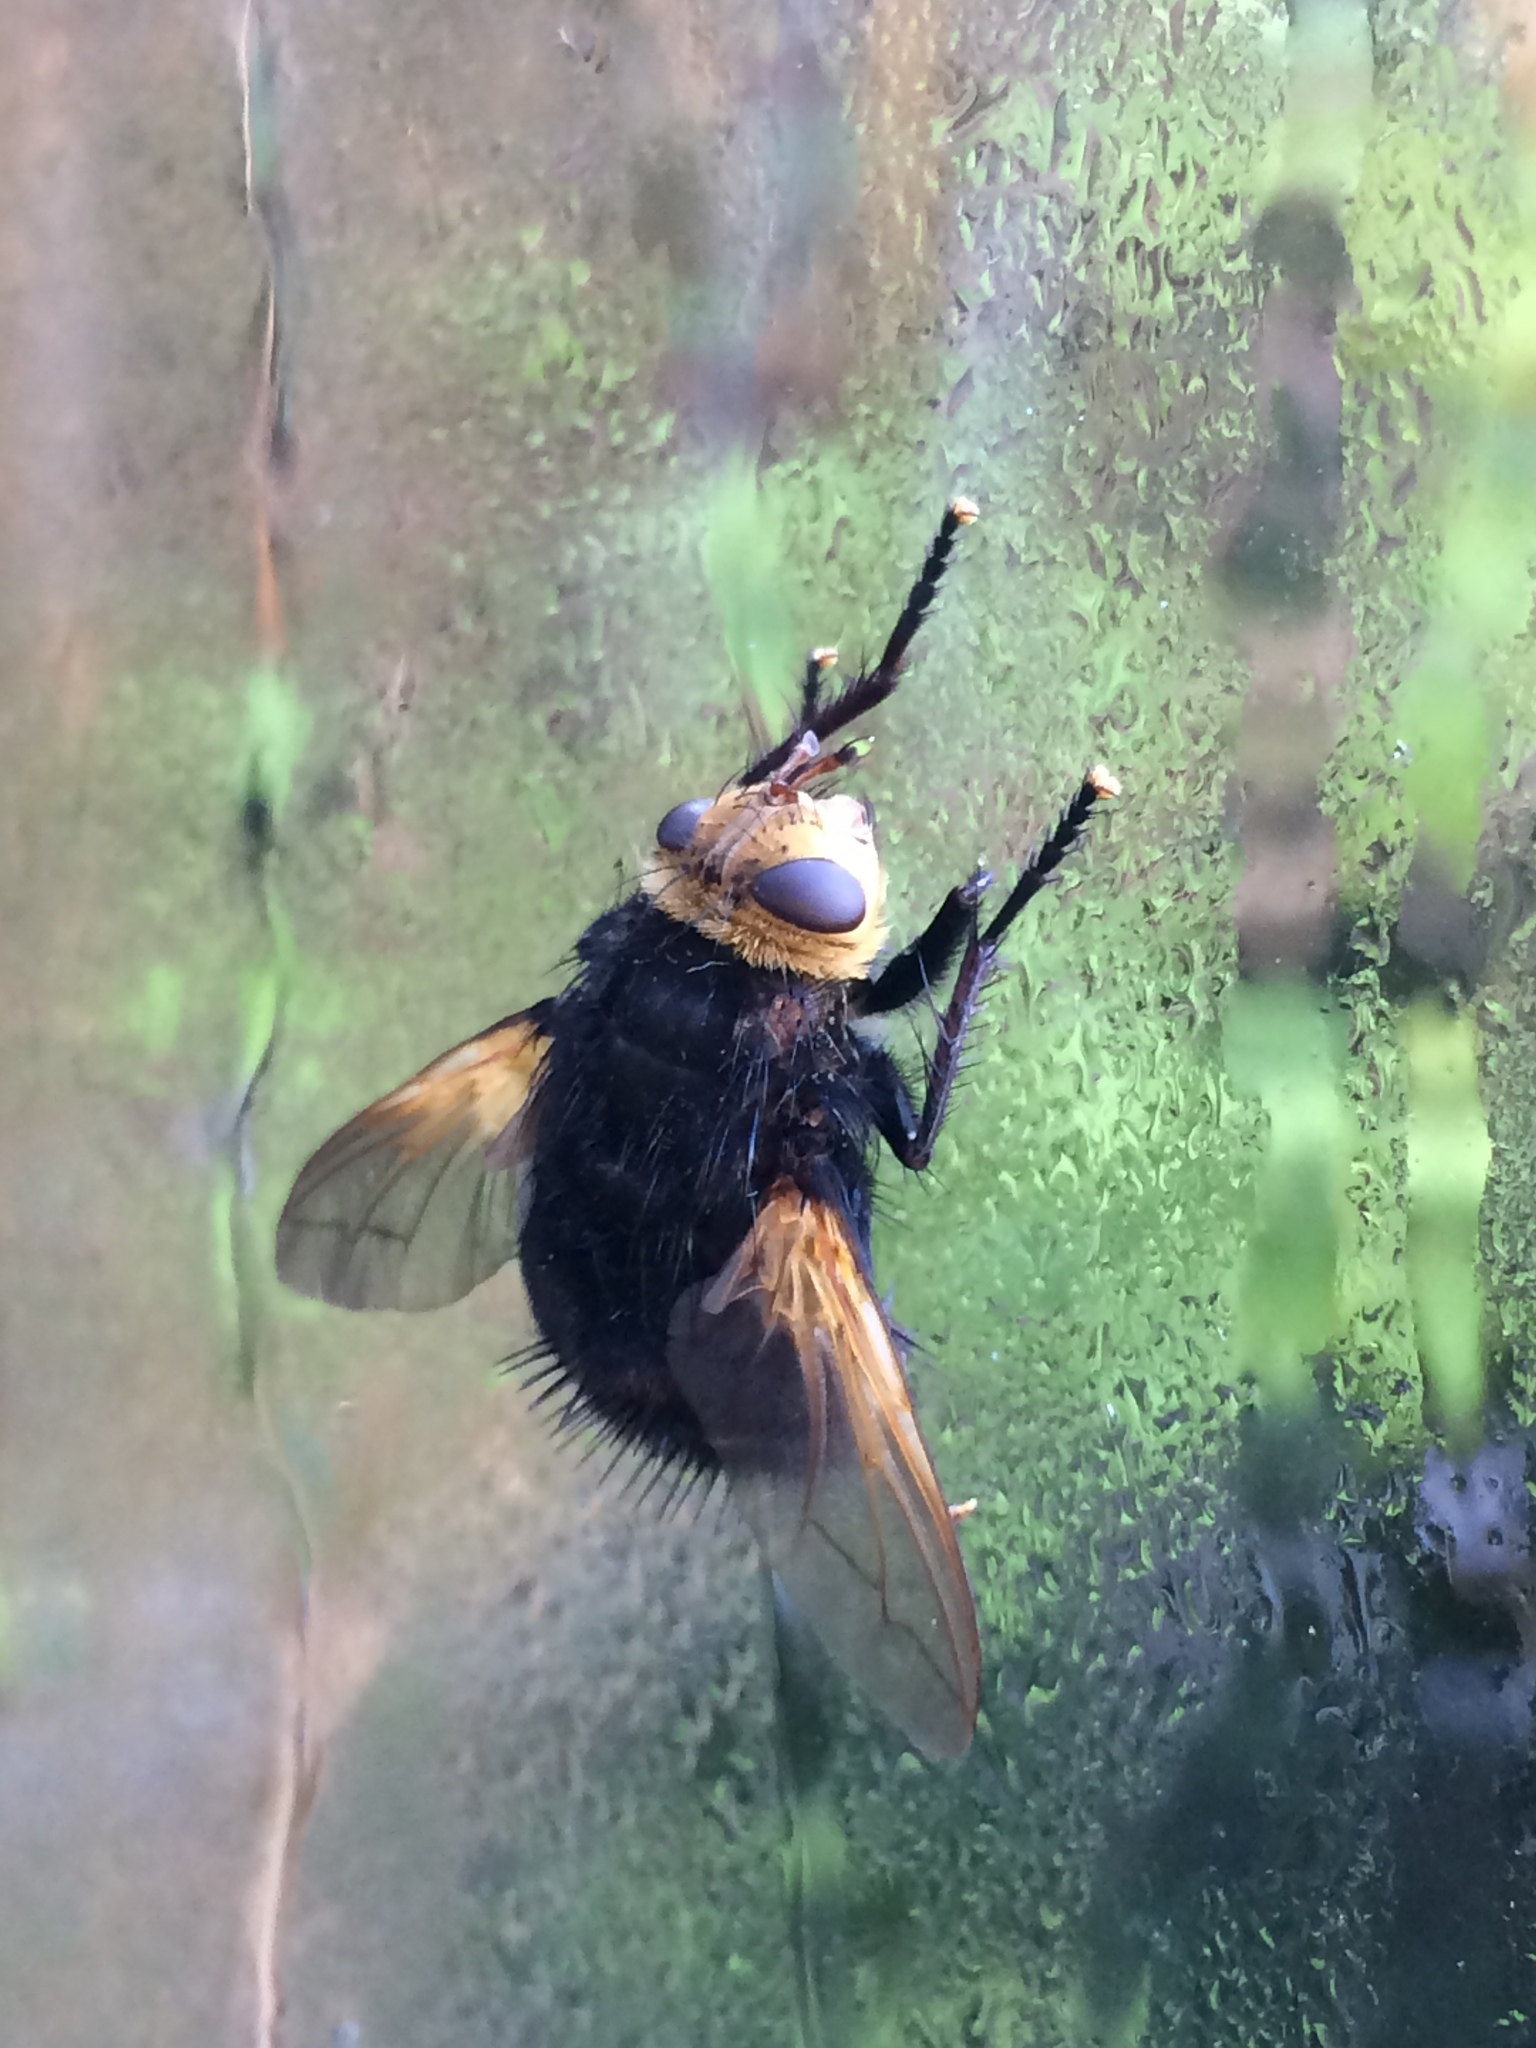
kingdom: Animalia
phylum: Arthropoda
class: Insecta
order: Diptera
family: Tachinidae
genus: Tachina
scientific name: Tachina grossa
